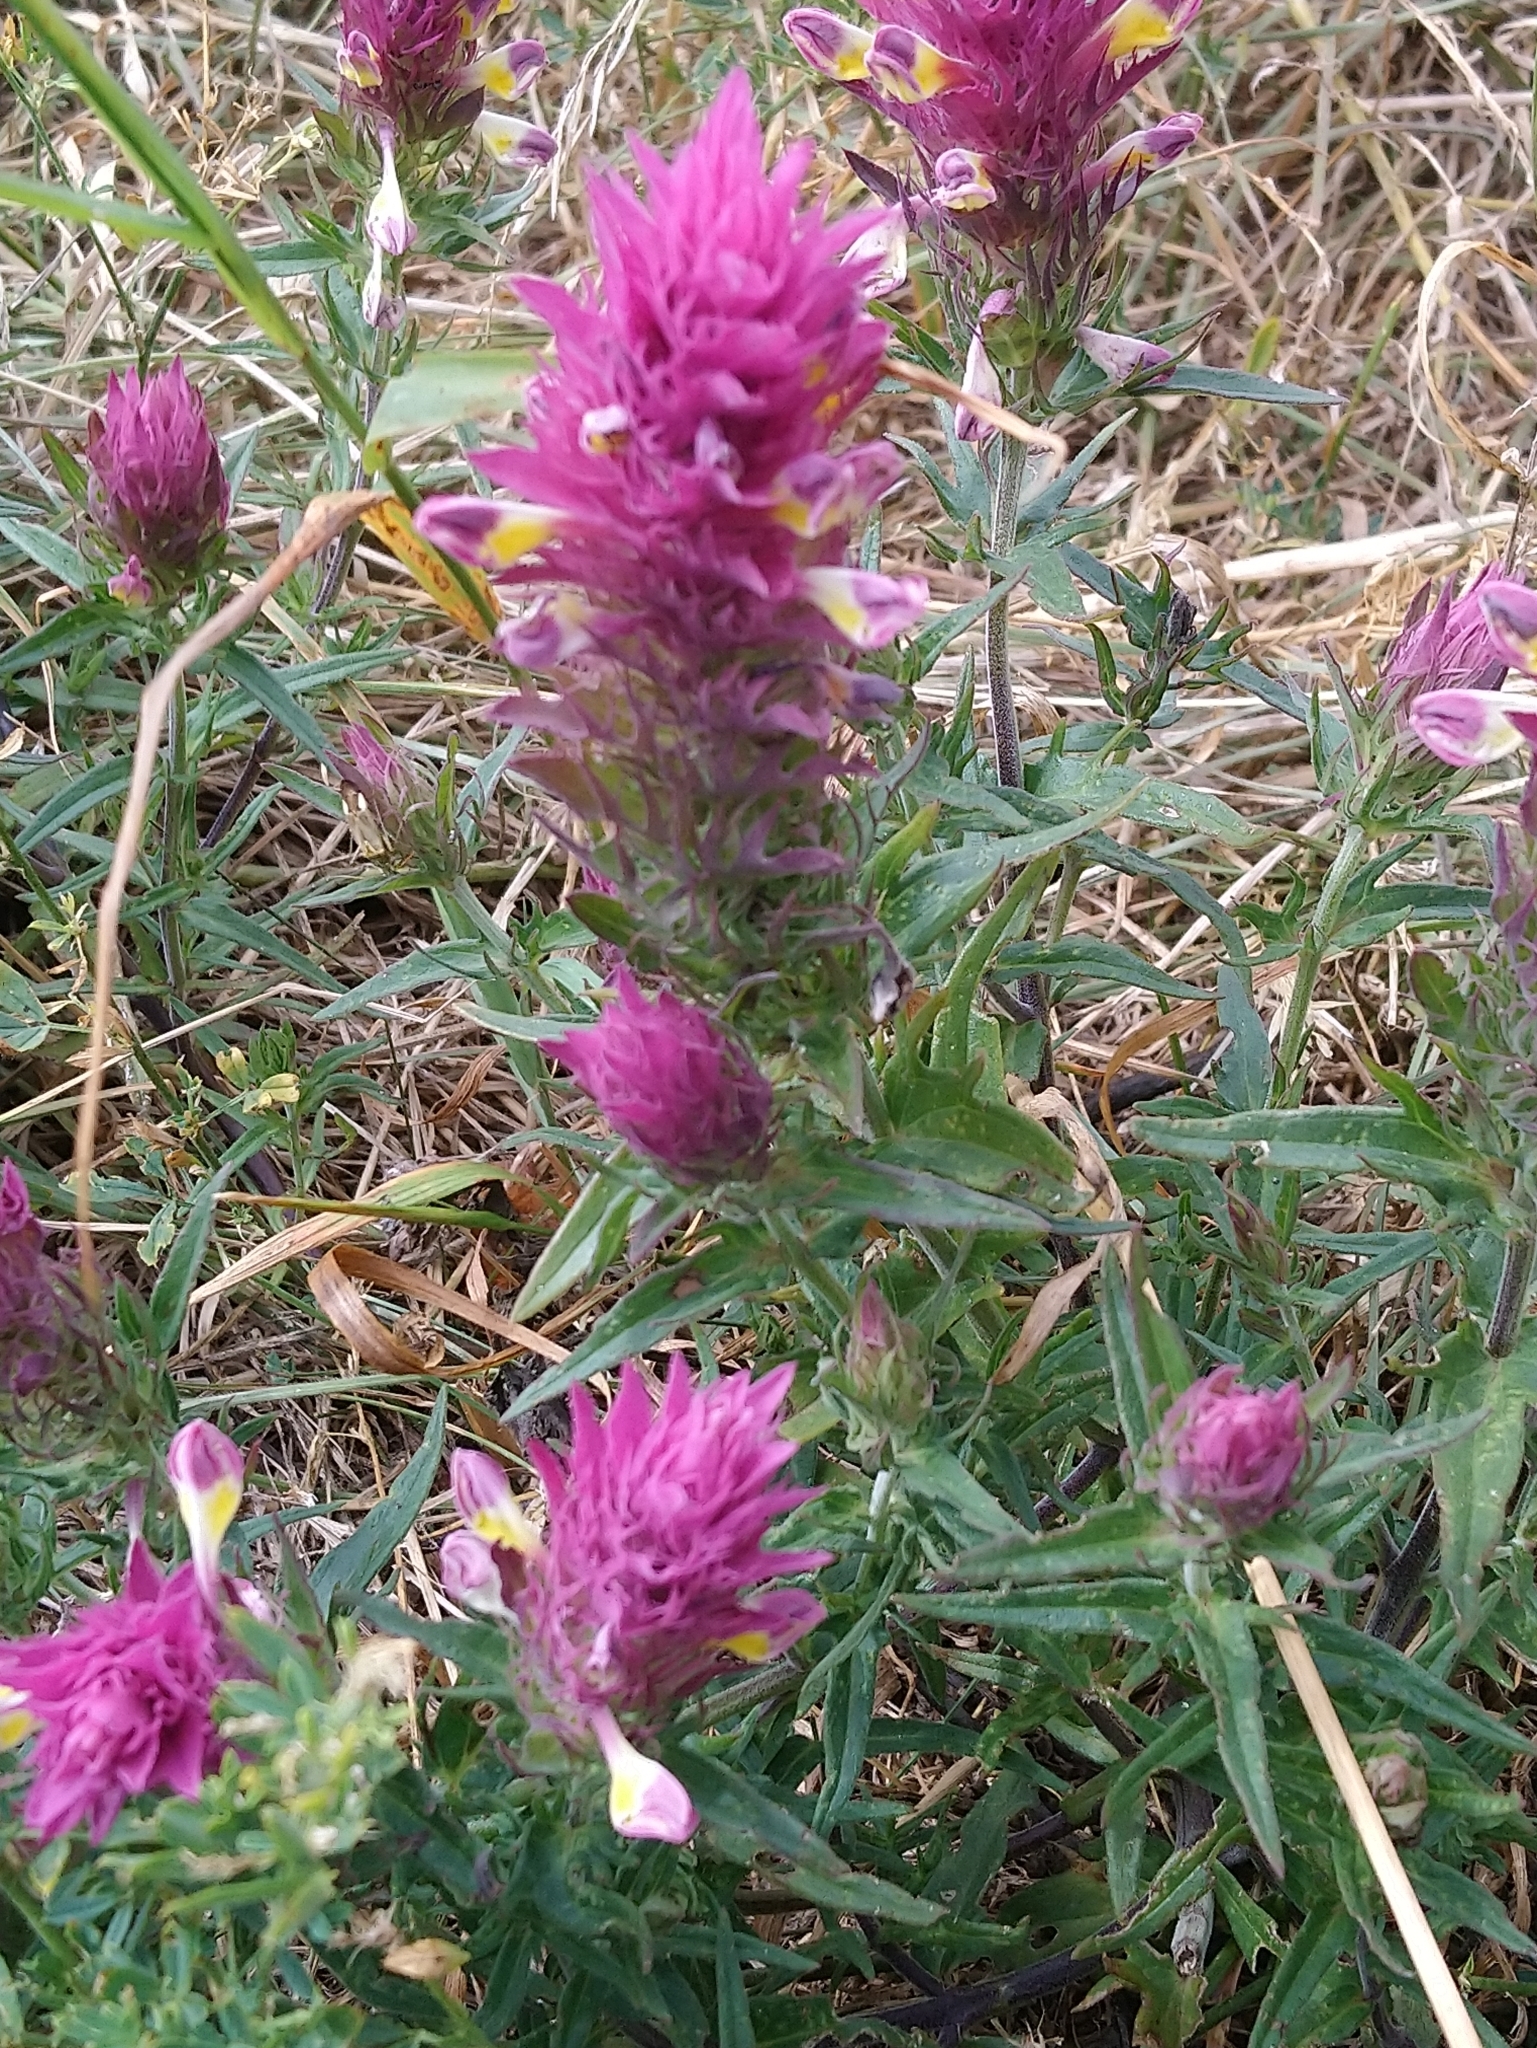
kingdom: Plantae
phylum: Tracheophyta
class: Magnoliopsida
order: Lamiales
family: Orobanchaceae
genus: Melampyrum
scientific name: Melampyrum arvense
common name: Field cow-wheat
